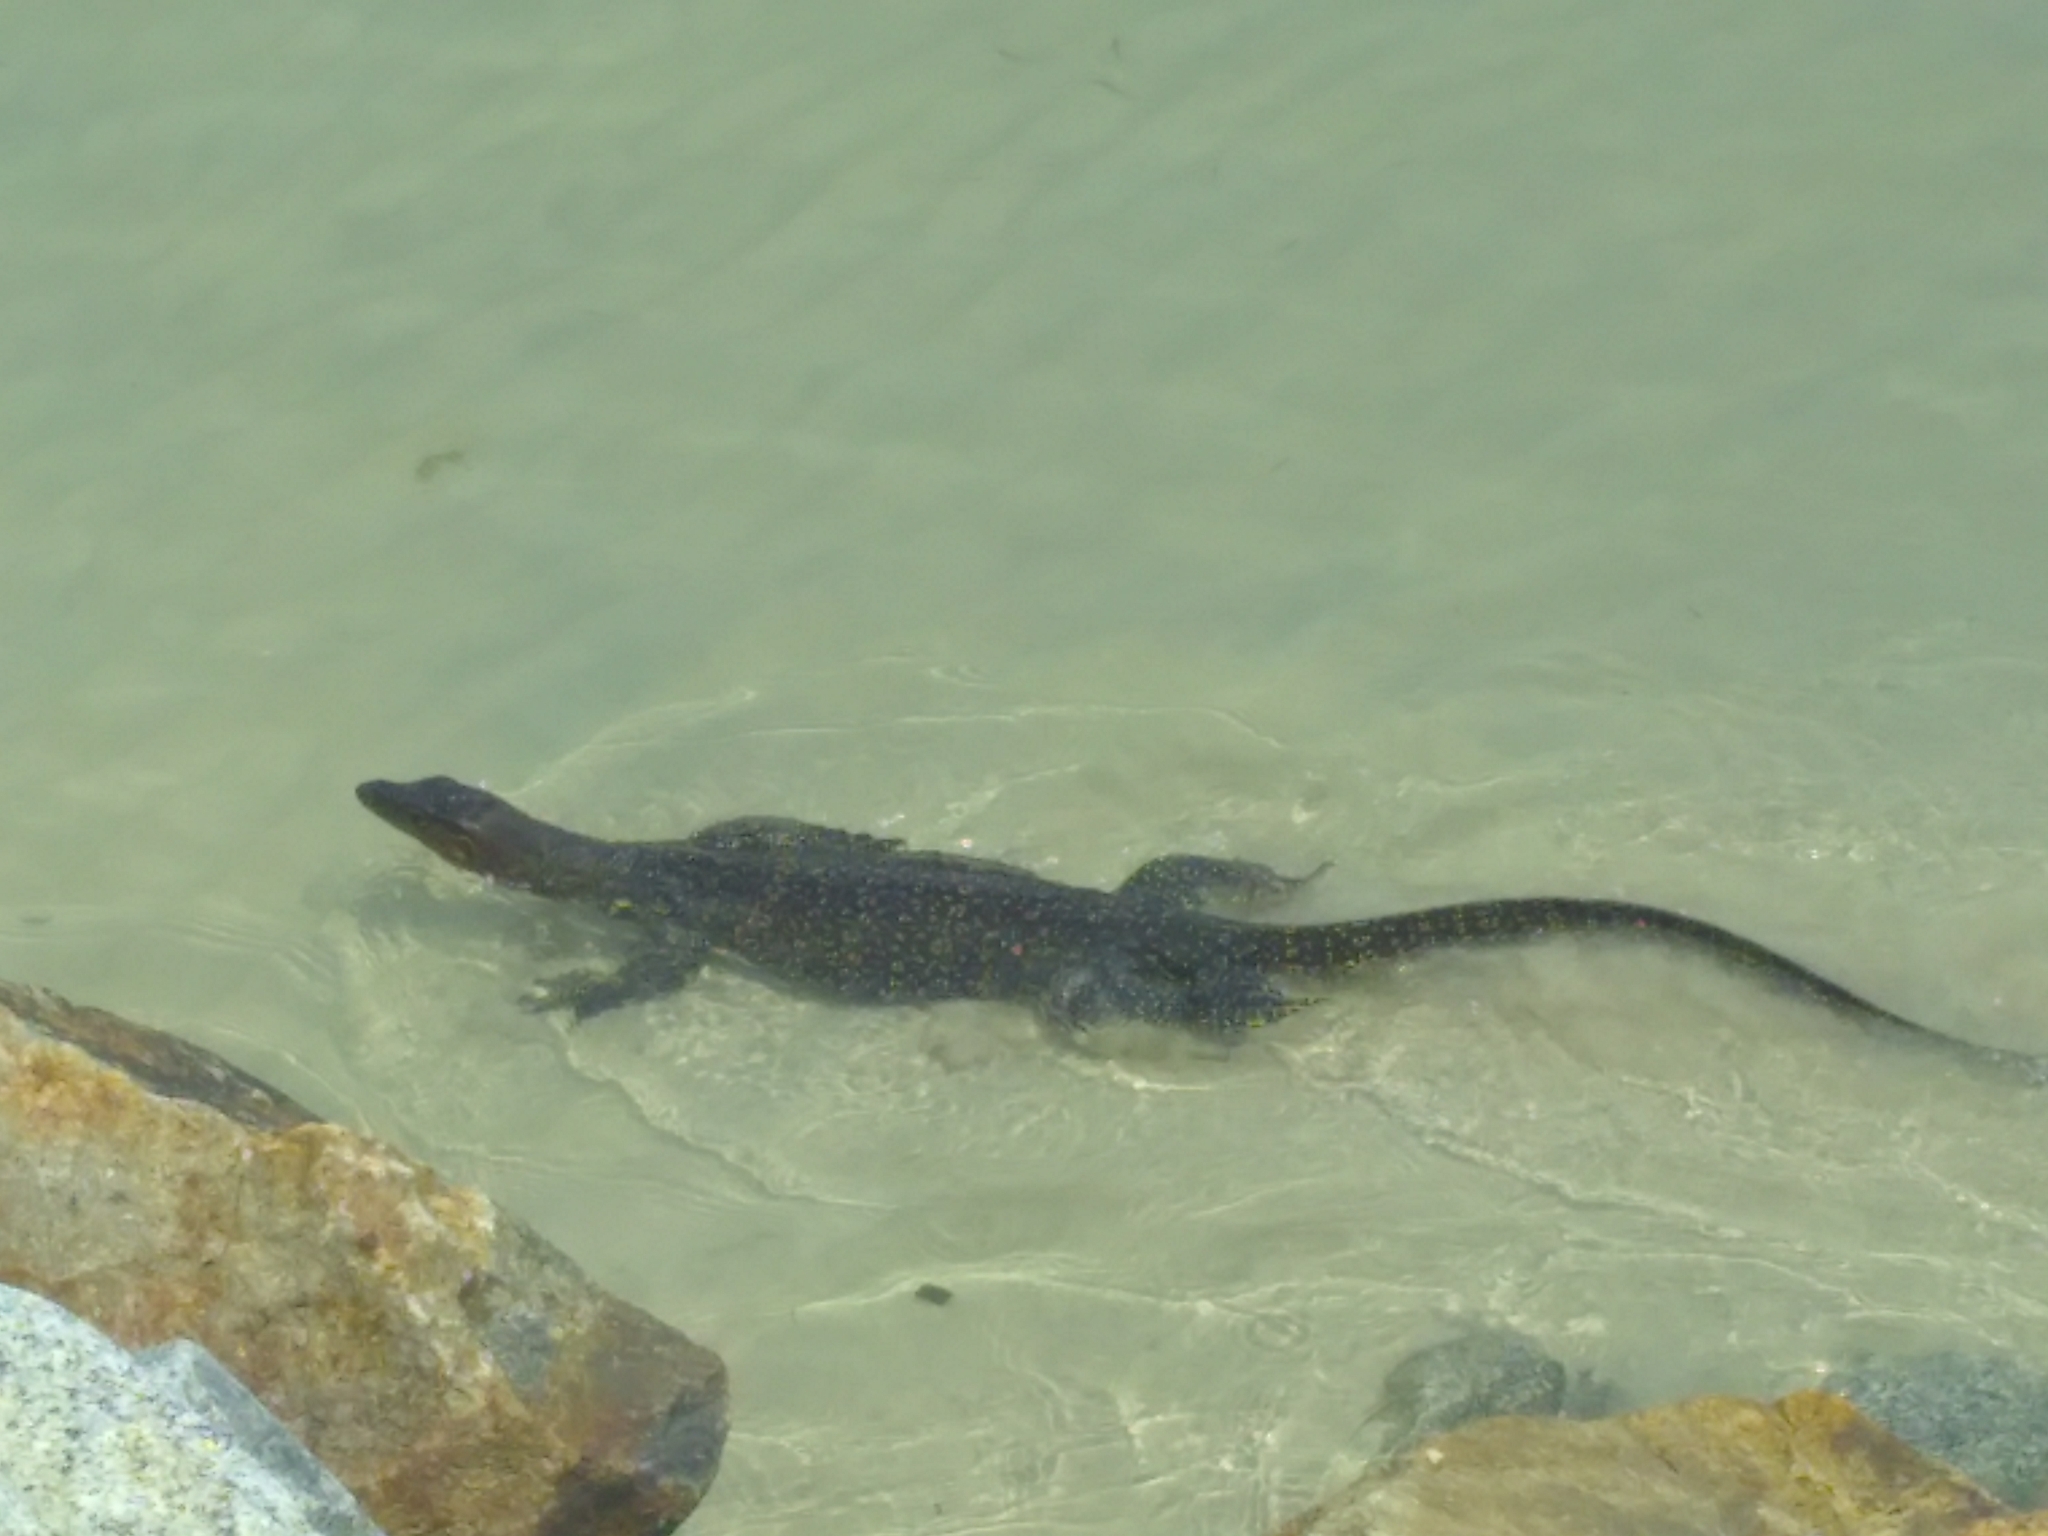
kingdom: Animalia
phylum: Chordata
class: Squamata
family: Varanidae
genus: Varanus
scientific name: Varanus salvator
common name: Common water monitor
